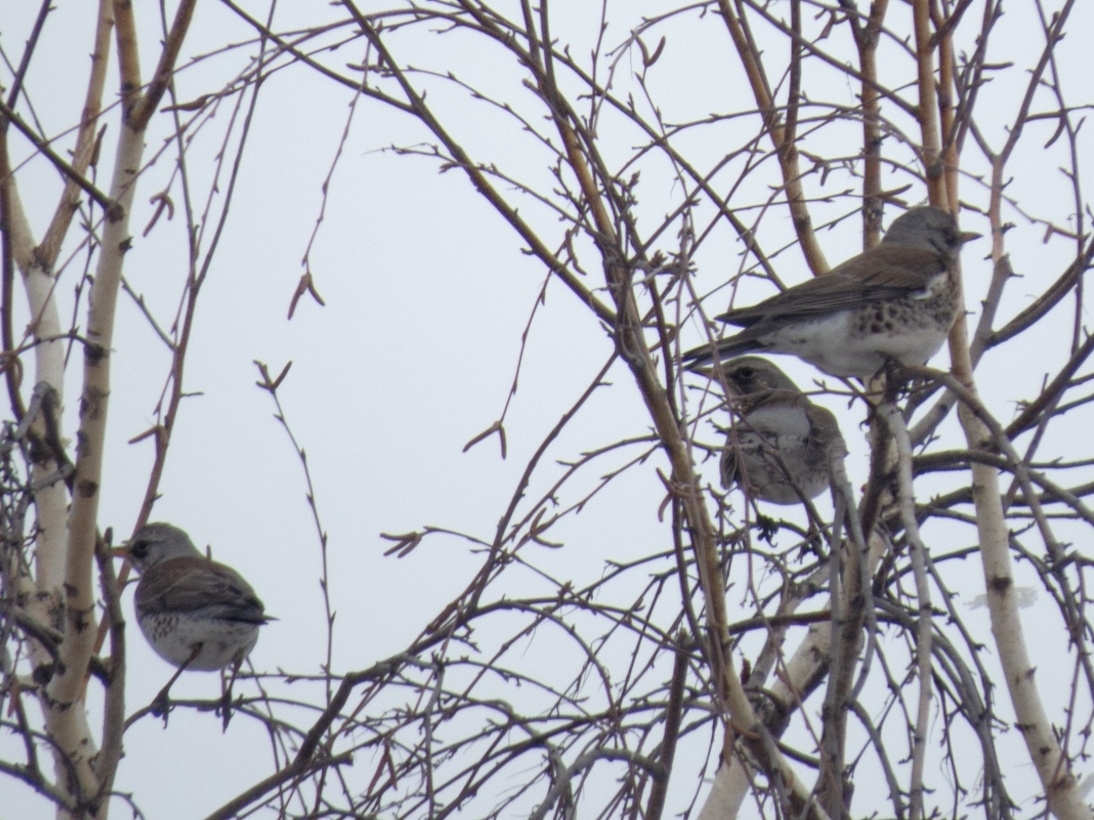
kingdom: Animalia
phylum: Chordata
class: Aves
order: Passeriformes
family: Turdidae
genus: Turdus
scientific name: Turdus pilaris
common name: Fieldfare
